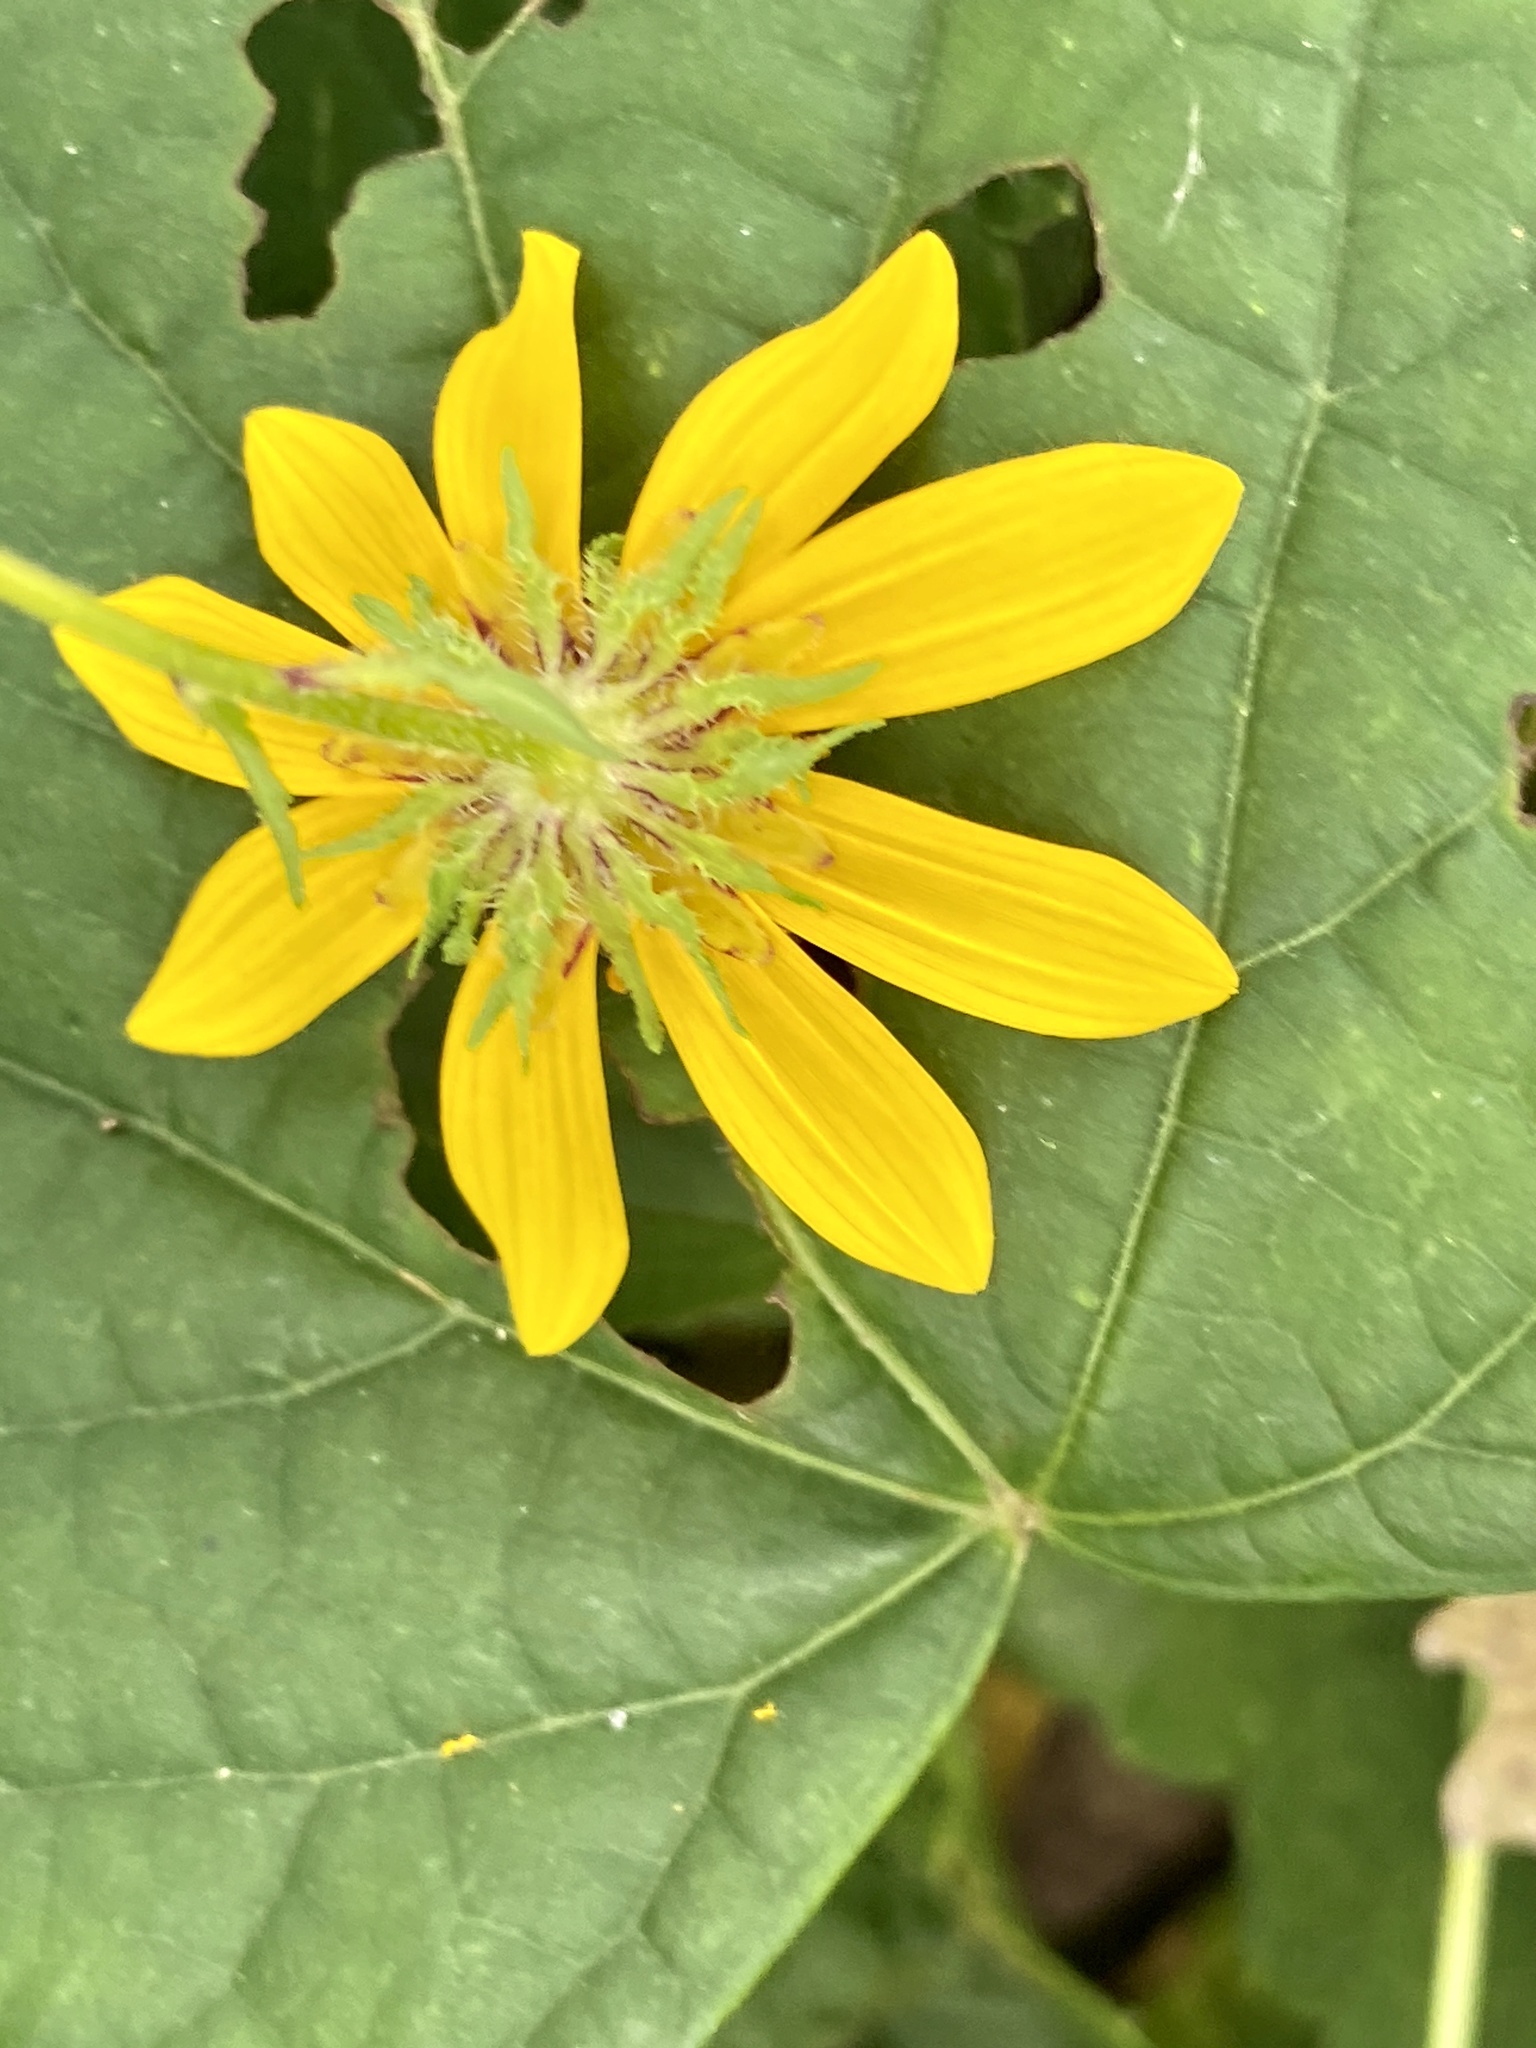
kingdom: Plantae
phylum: Tracheophyta
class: Magnoliopsida
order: Asterales
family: Asteraceae
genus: Bidens
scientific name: Bidens polylepis
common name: Awnless beggarticks
